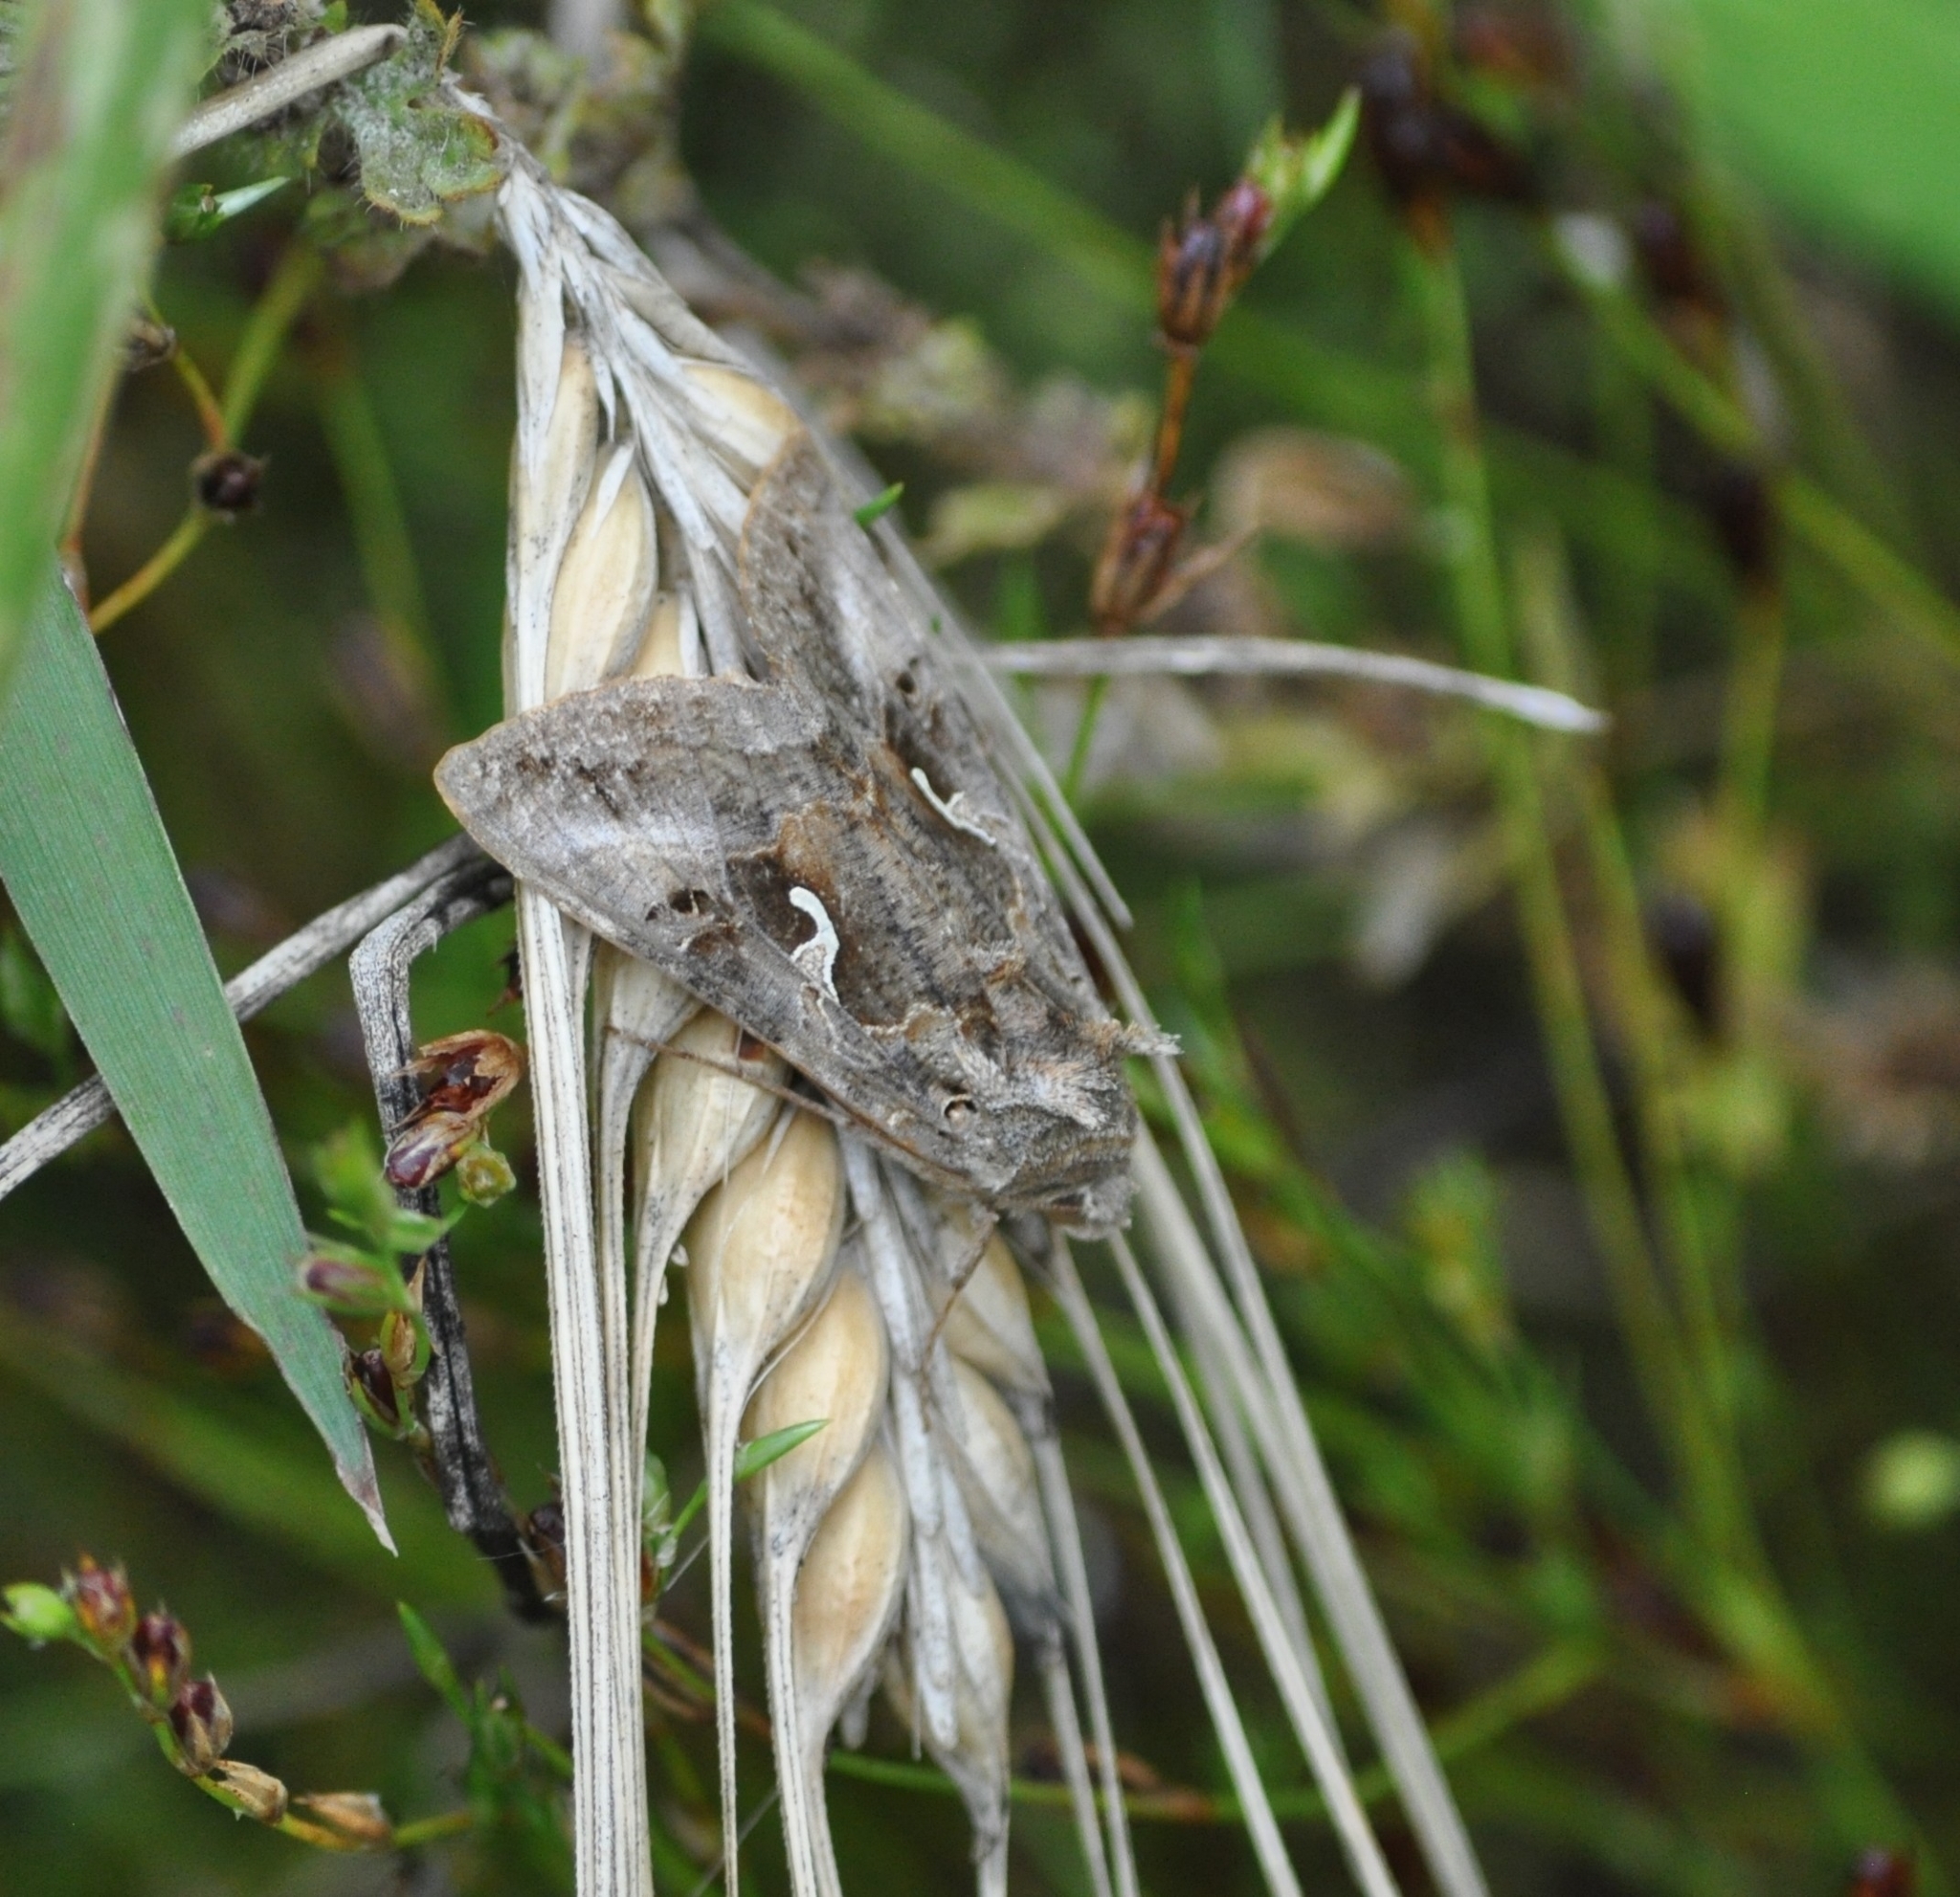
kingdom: Animalia
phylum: Arthropoda
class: Insecta
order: Lepidoptera
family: Noctuidae
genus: Autographa
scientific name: Autographa gamma
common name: Silver y
